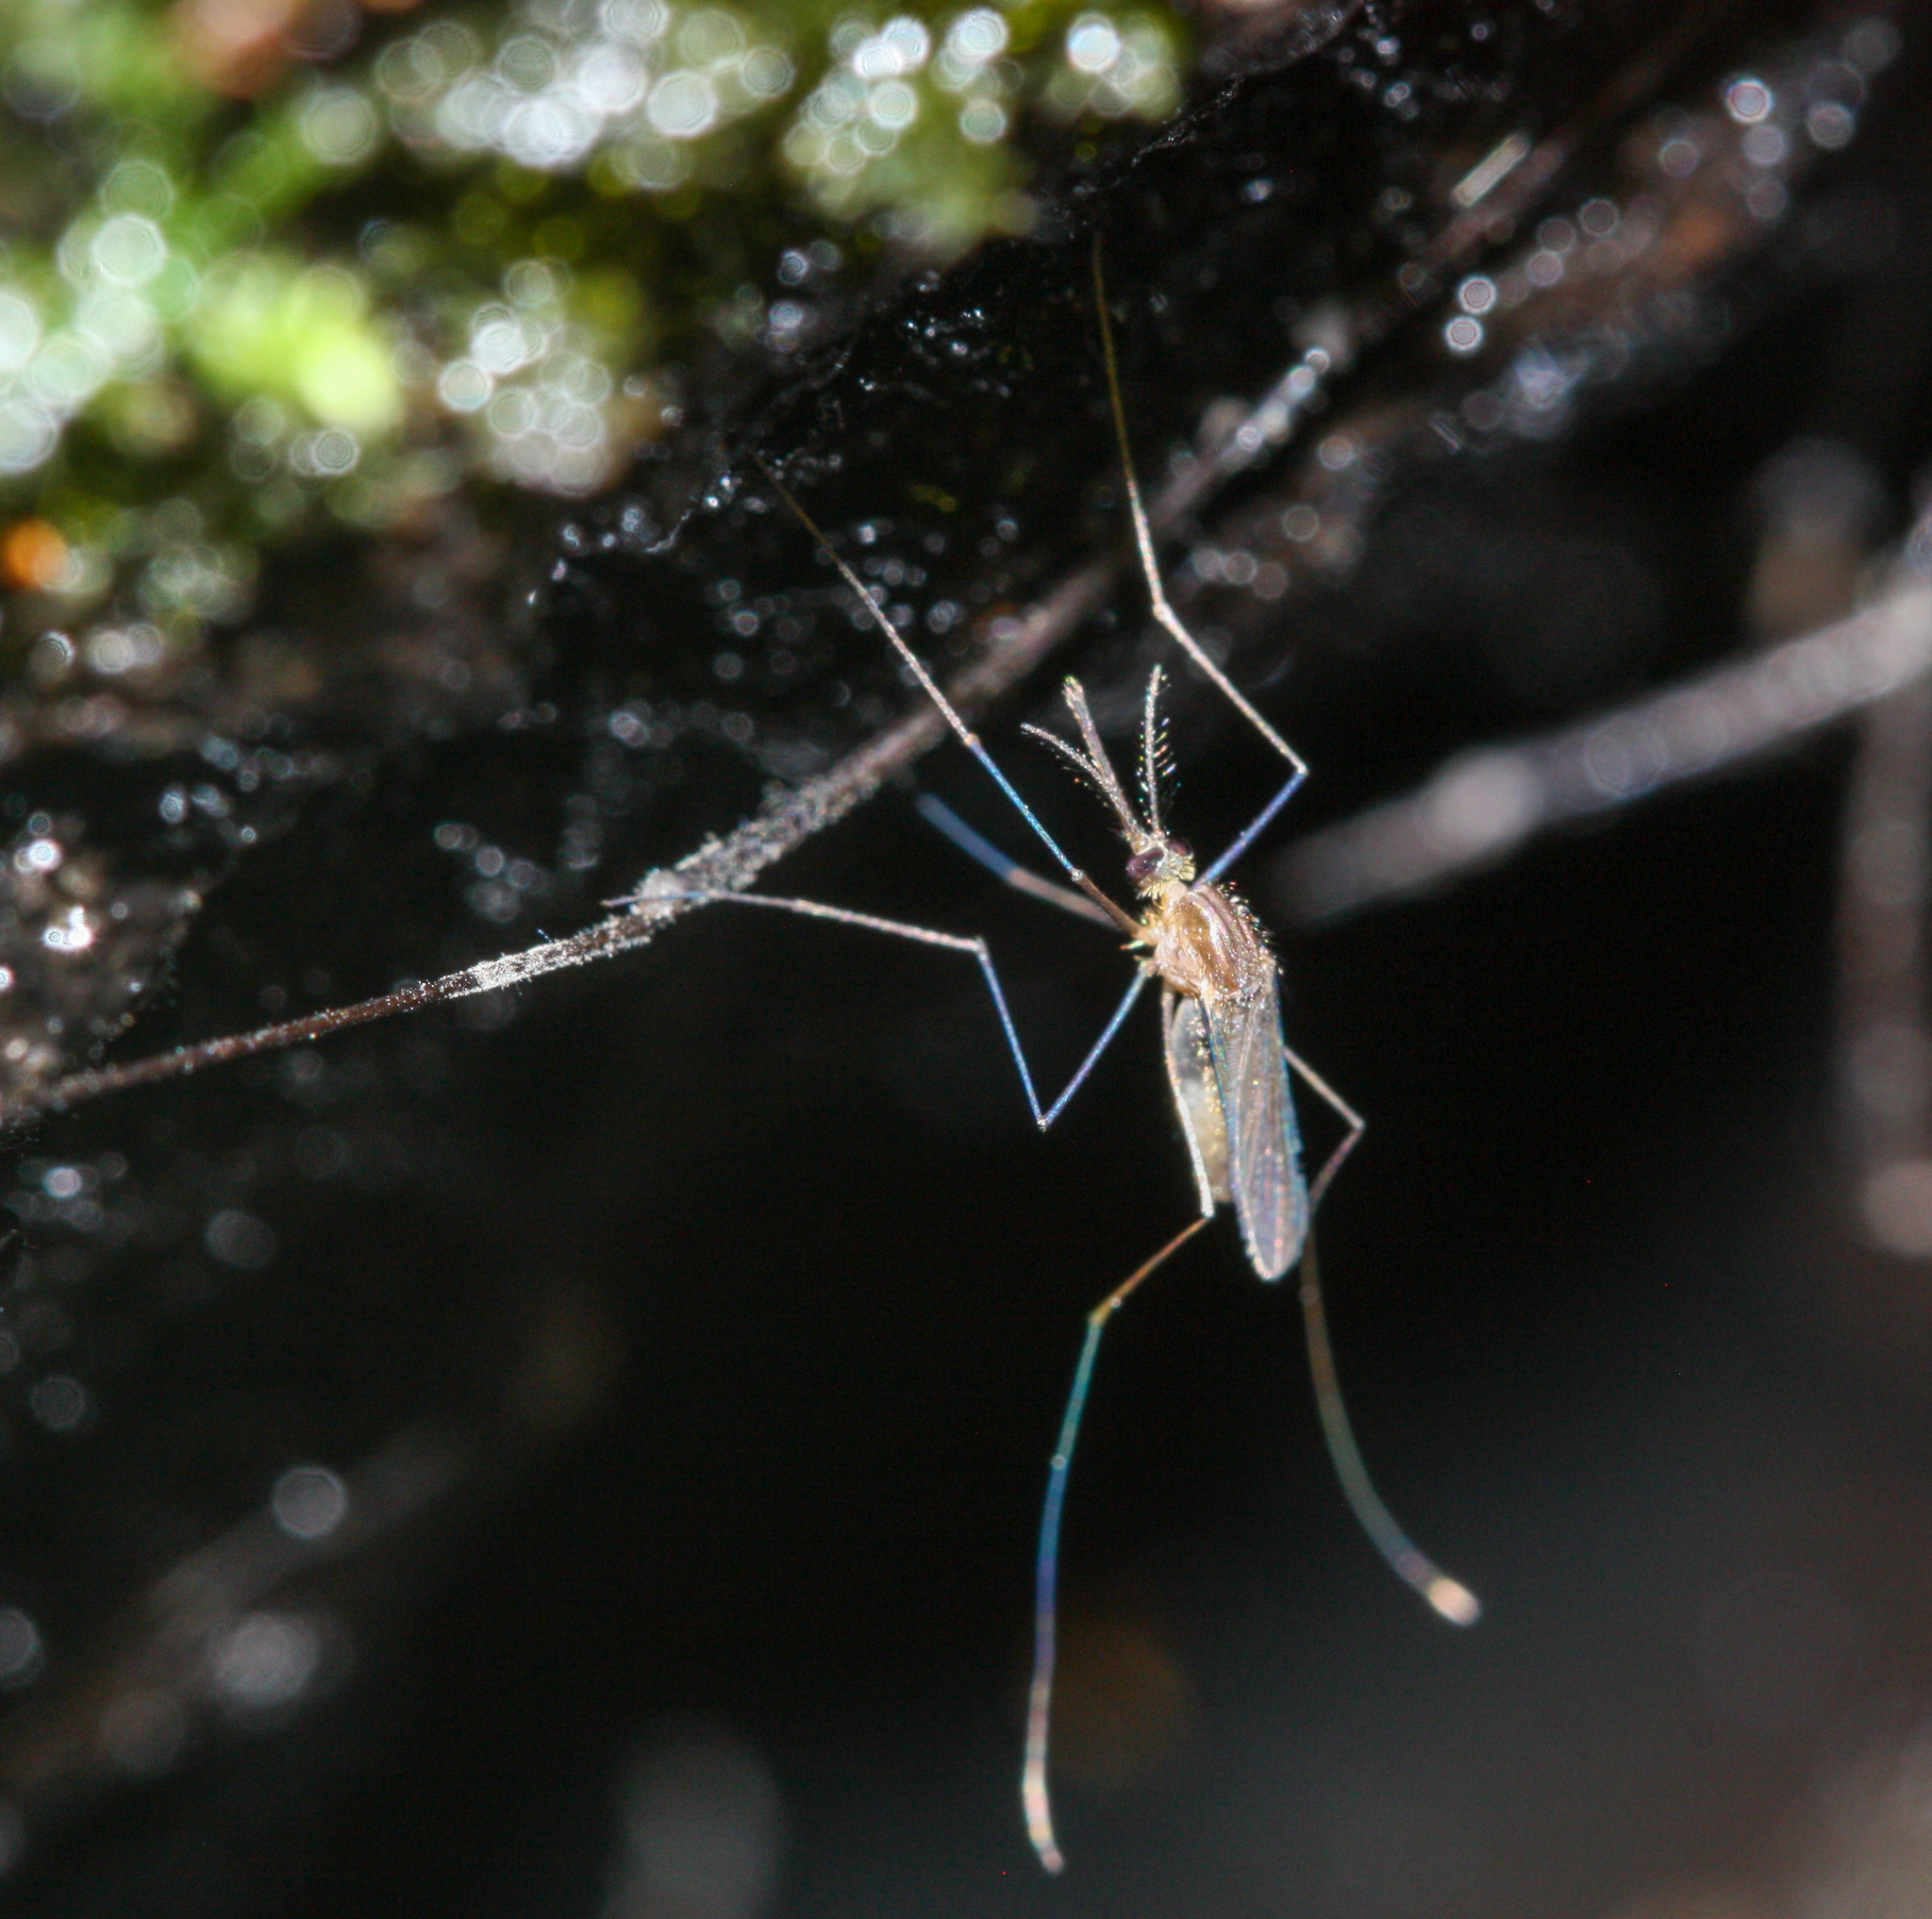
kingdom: Animalia
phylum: Arthropoda
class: Insecta
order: Diptera
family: Culicidae
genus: Anopheles
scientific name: Anopheles barberi
